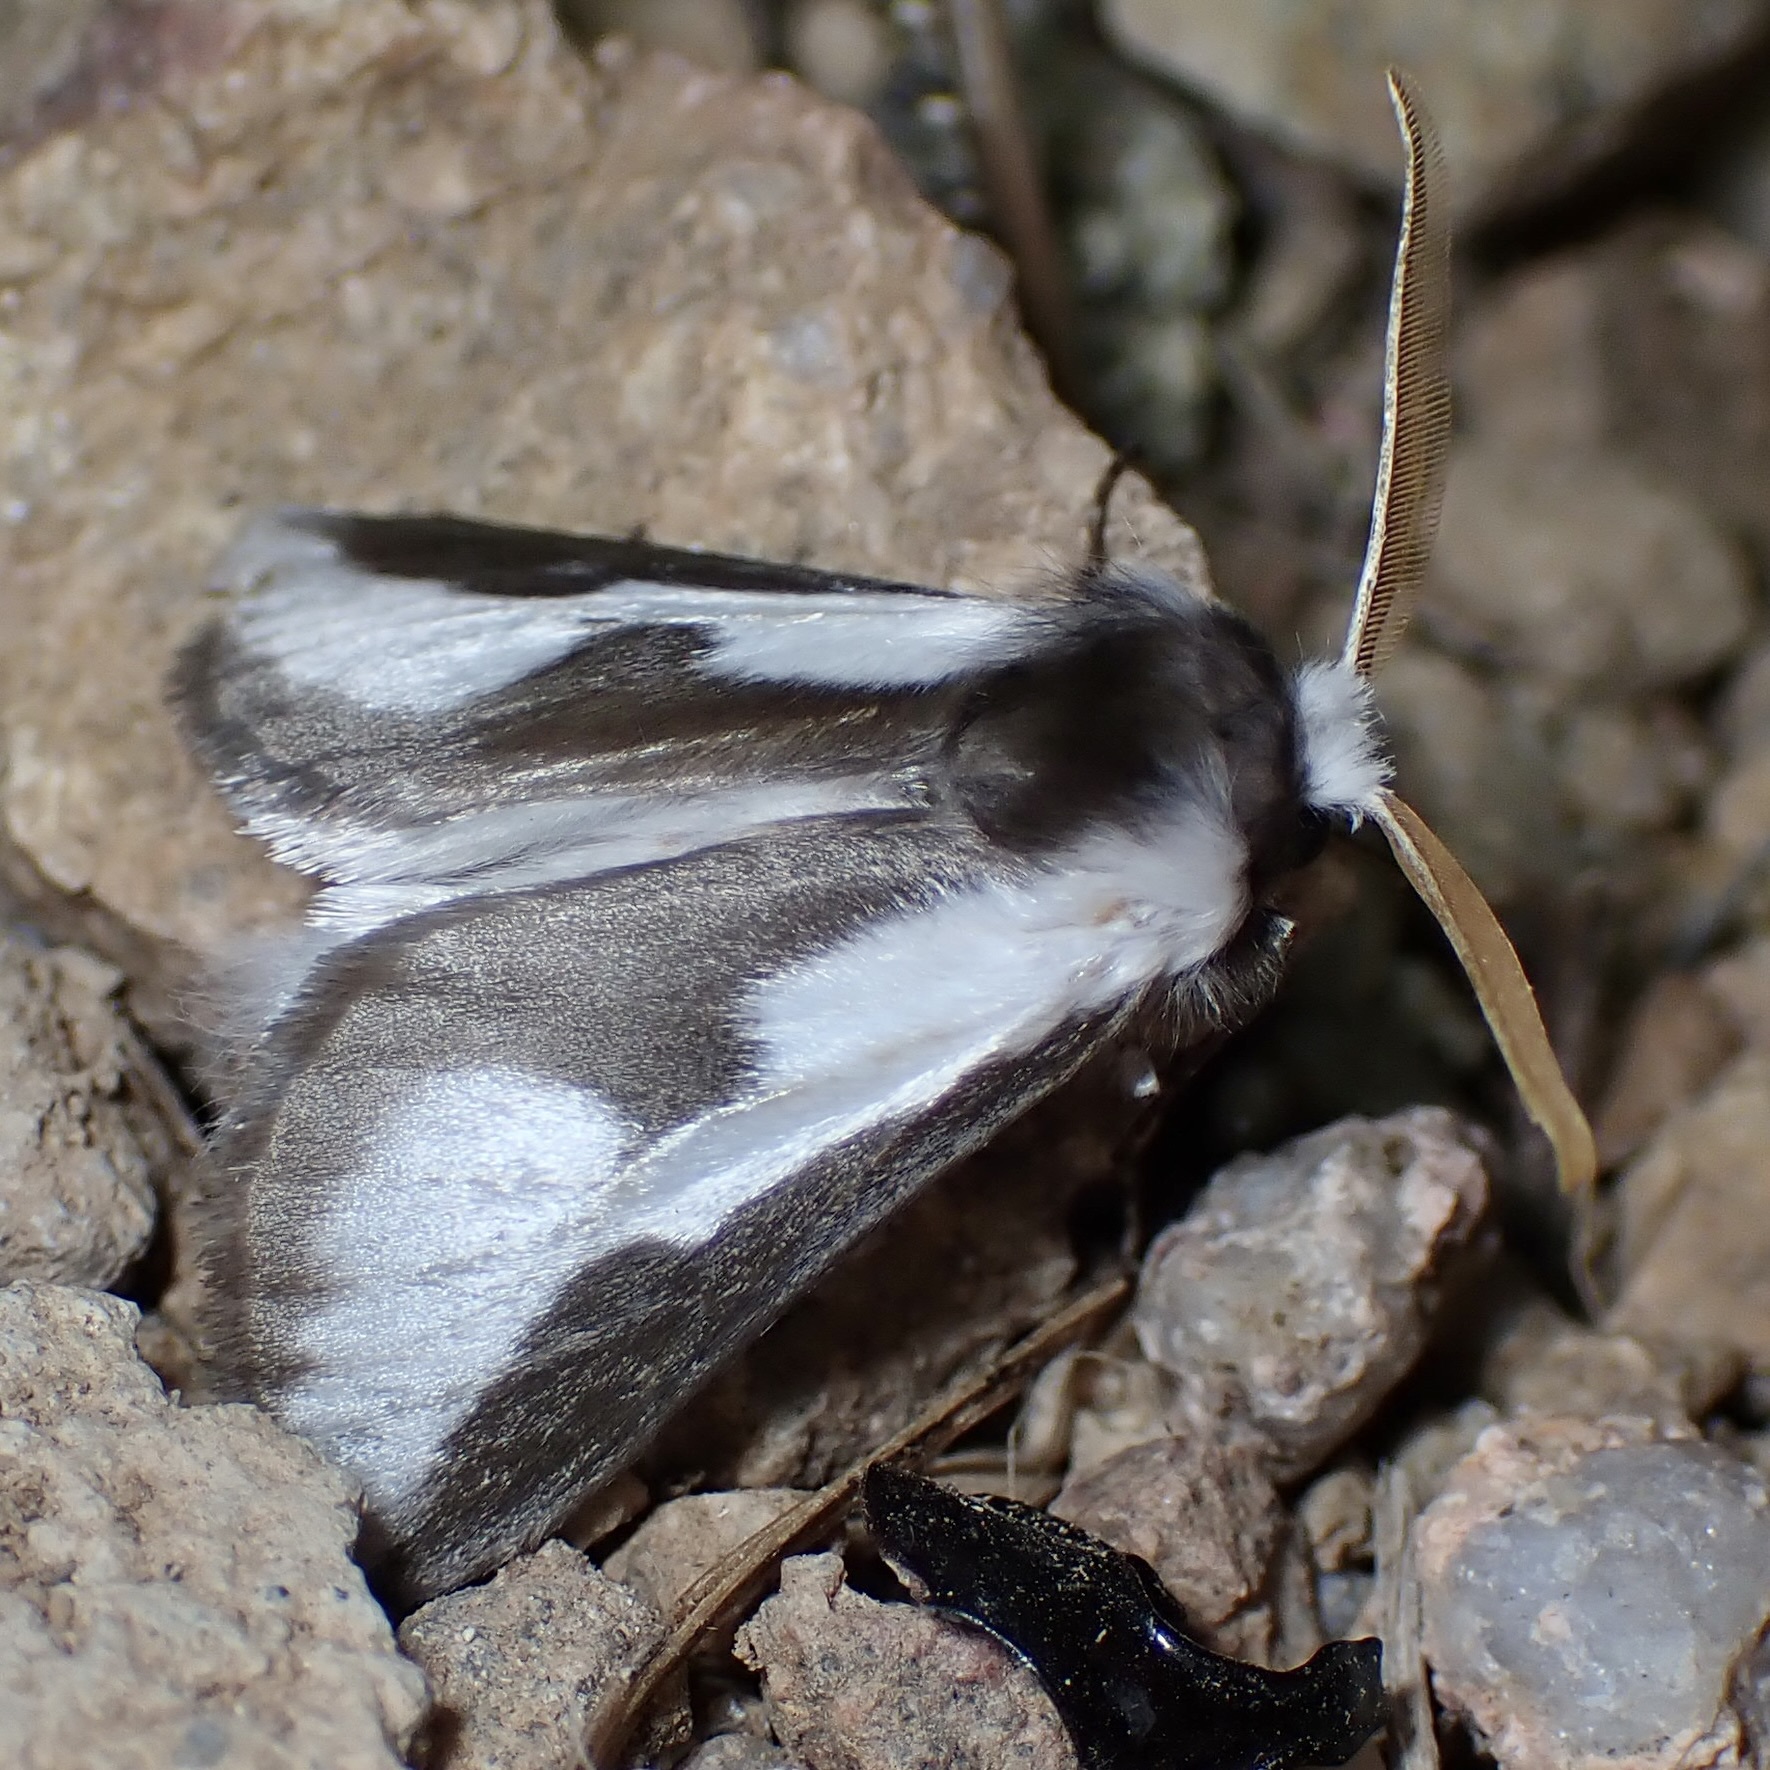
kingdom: Animalia
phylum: Arthropoda
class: Insecta
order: Lepidoptera
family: Megalopygidae
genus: Norape
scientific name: Norape tener
